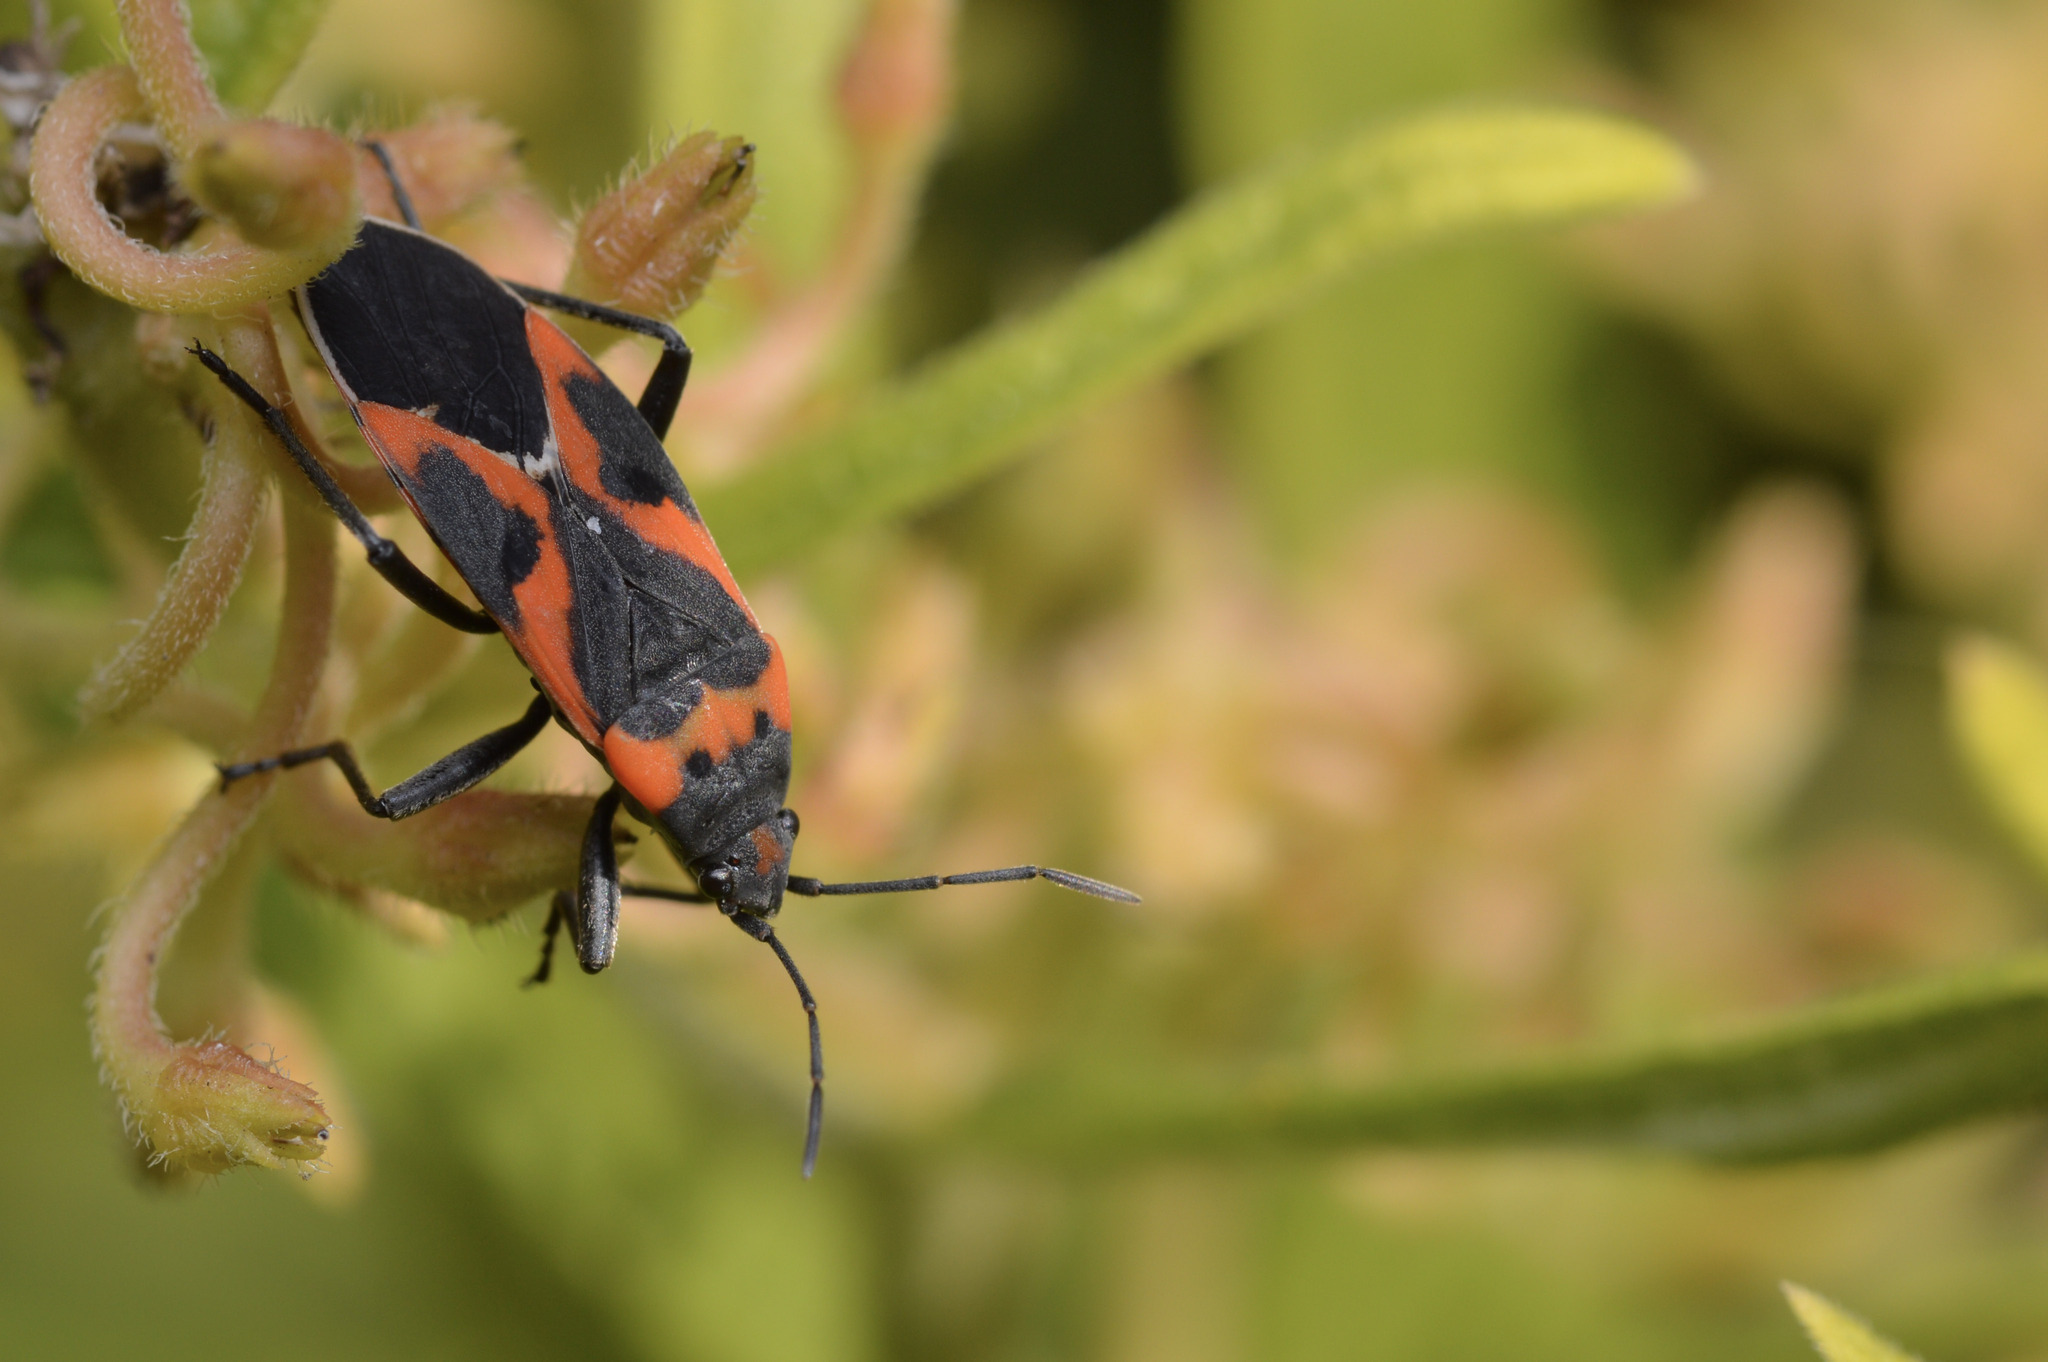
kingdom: Animalia
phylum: Arthropoda
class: Insecta
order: Hemiptera
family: Lygaeidae
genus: Lygaeus
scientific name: Lygaeus kalmii
